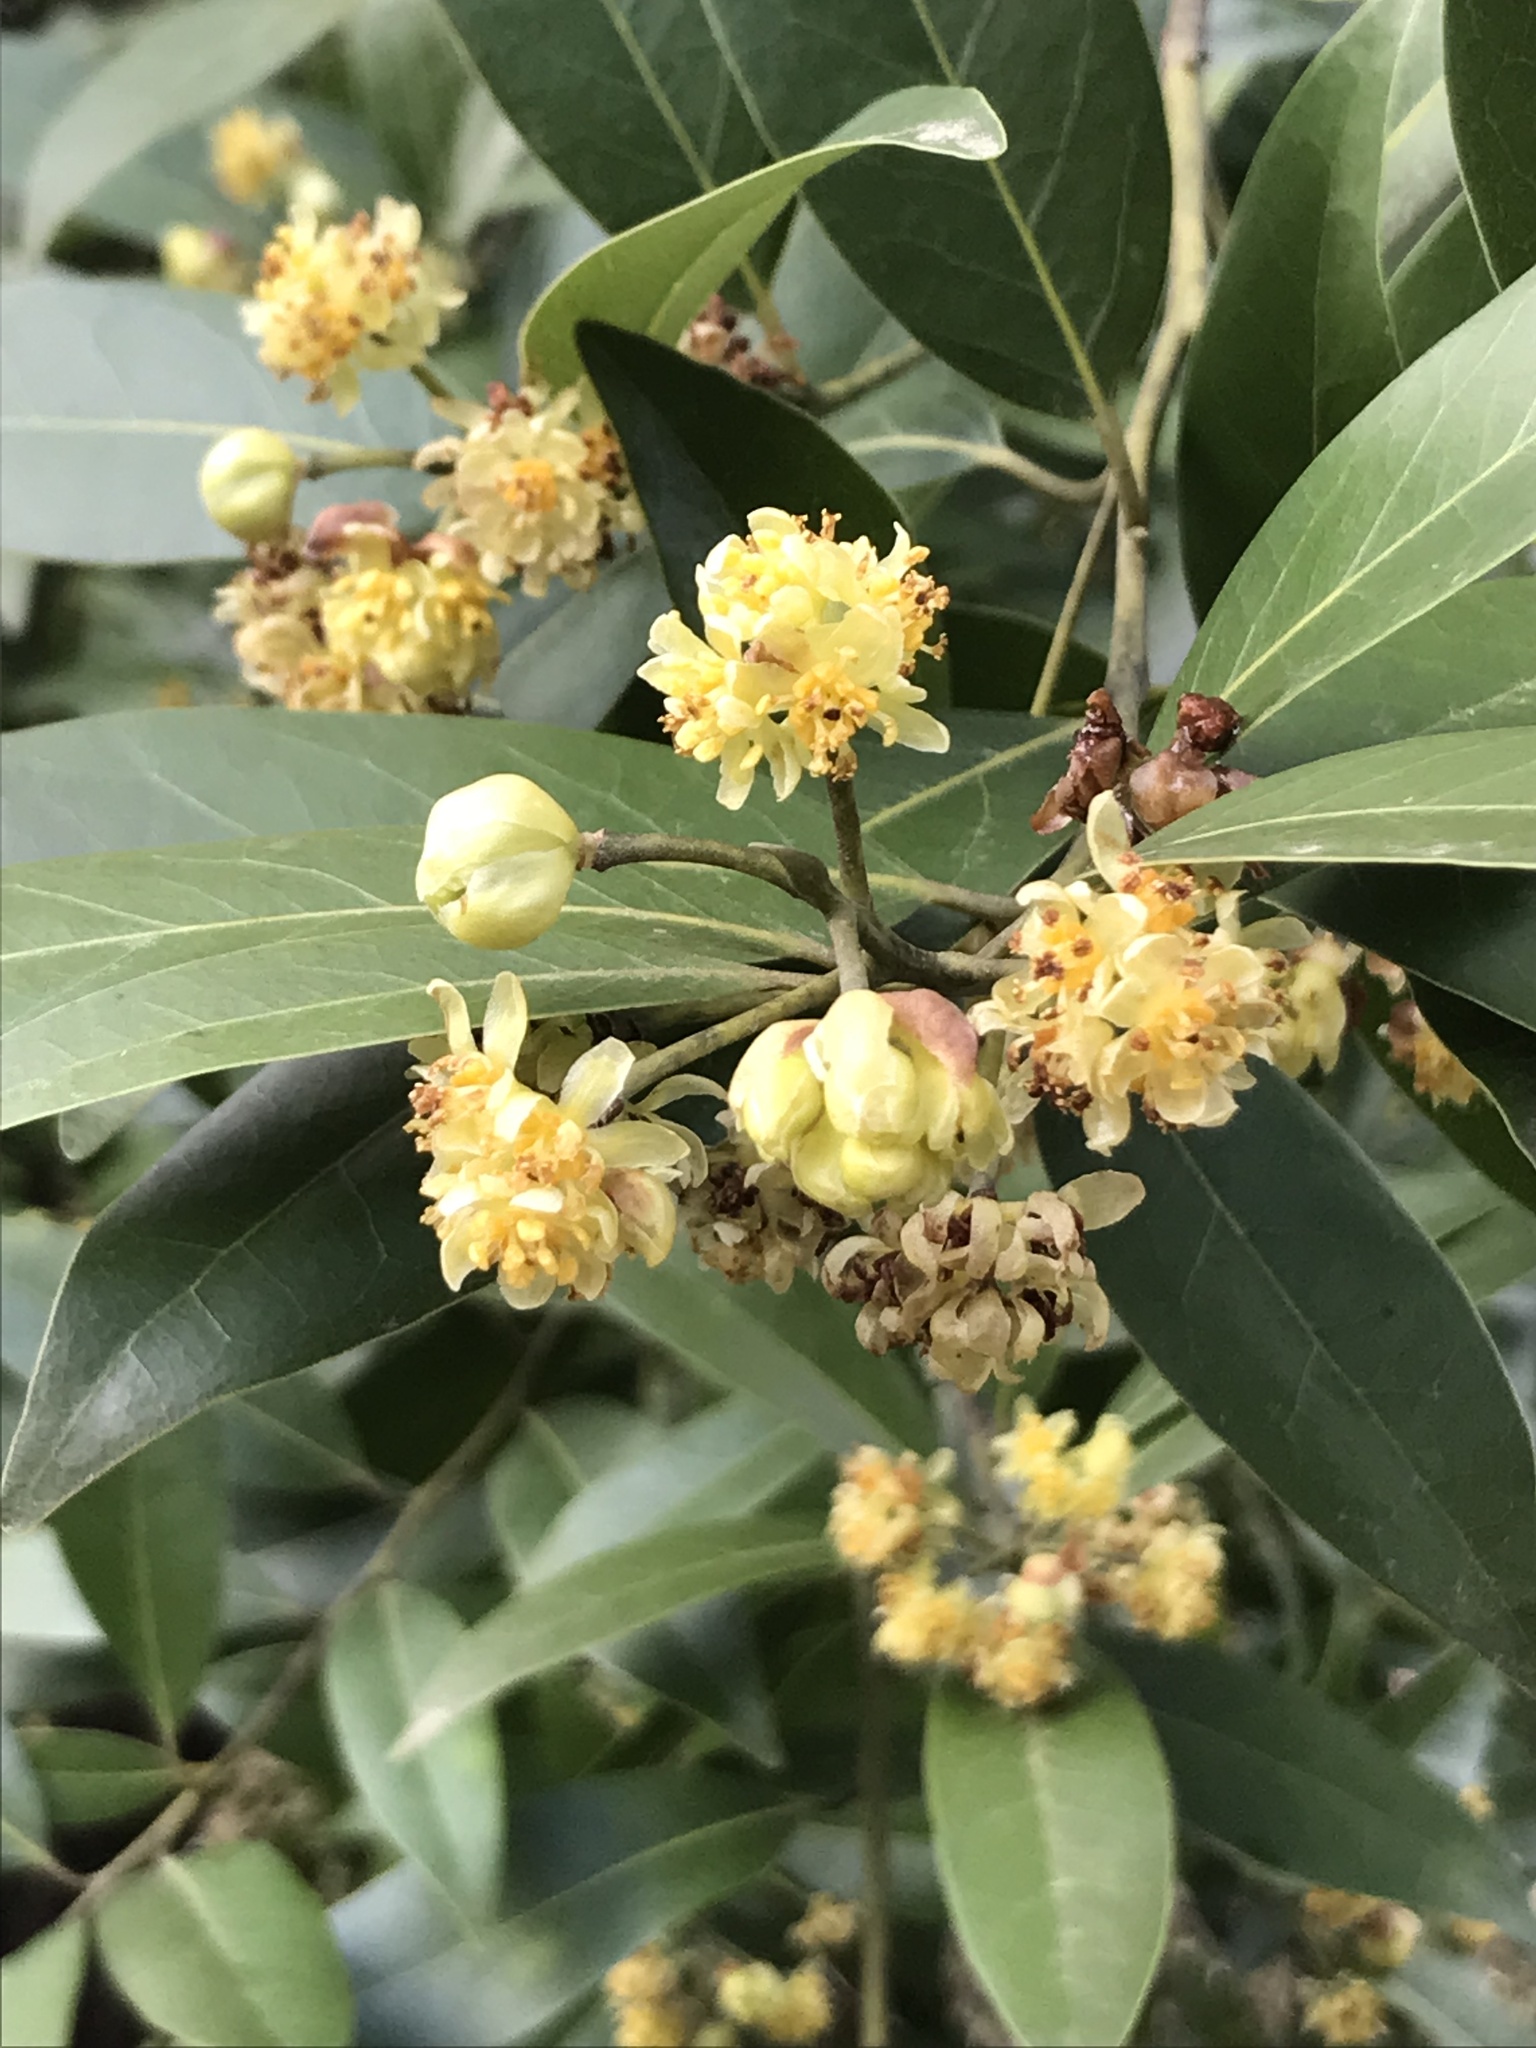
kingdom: Plantae
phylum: Tracheophyta
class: Magnoliopsida
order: Laurales
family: Lauraceae
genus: Umbellularia
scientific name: Umbellularia californica
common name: California bay
